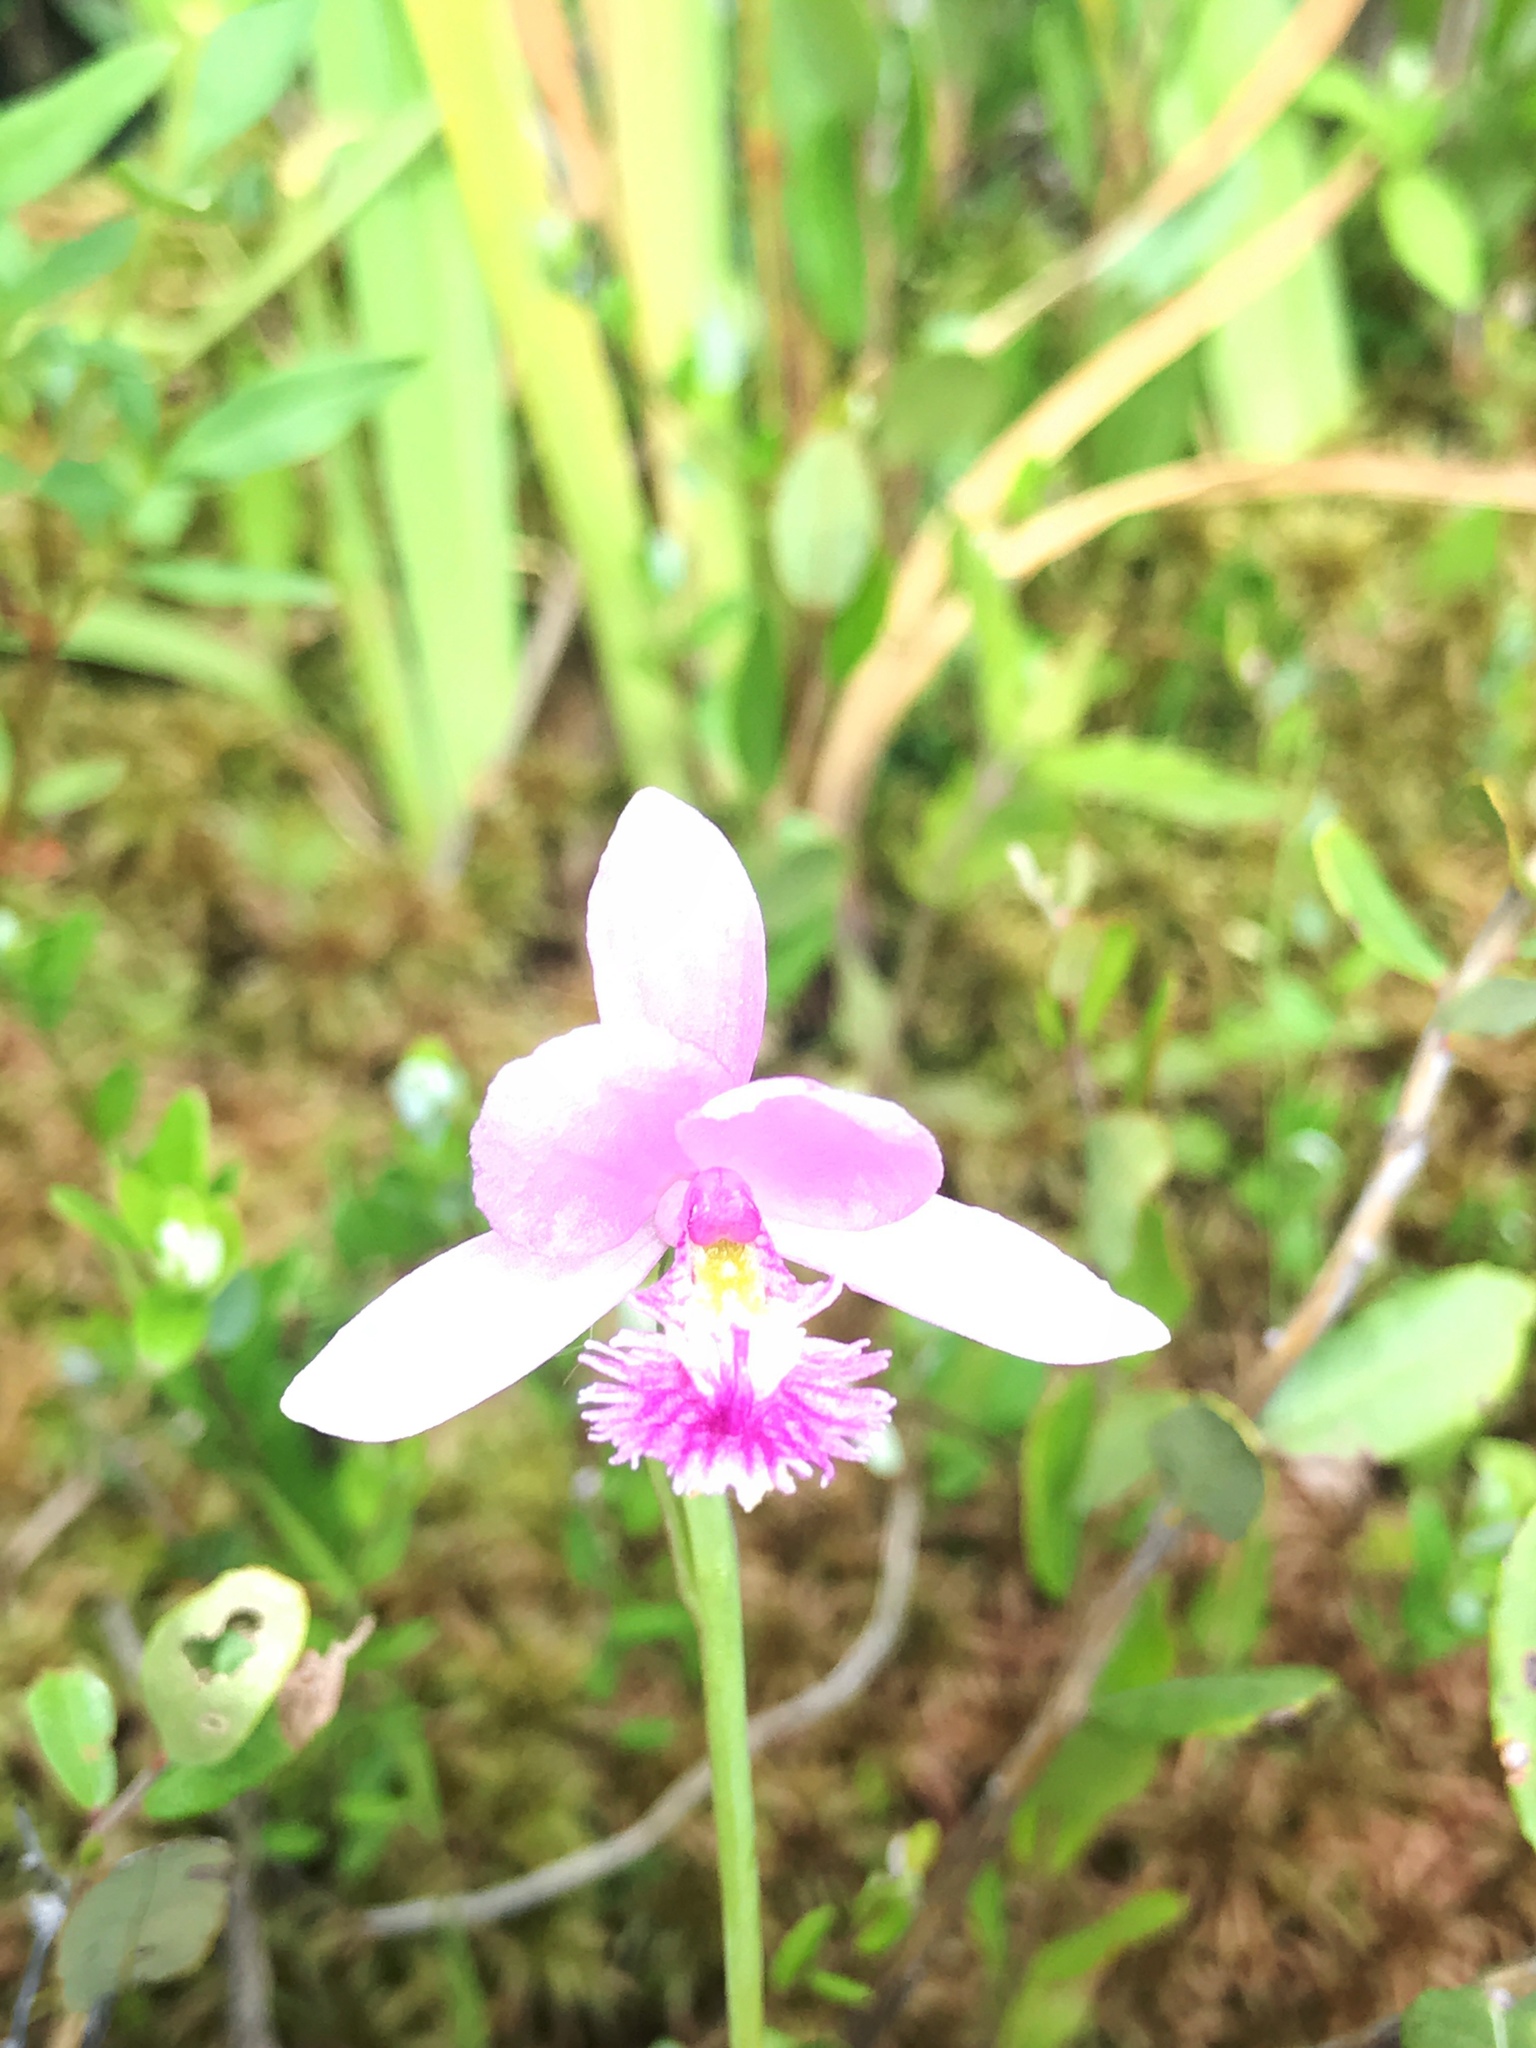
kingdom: Plantae
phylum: Tracheophyta
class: Liliopsida
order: Asparagales
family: Orchidaceae
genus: Pogonia
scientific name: Pogonia ophioglossoides
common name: Rose pogonia
